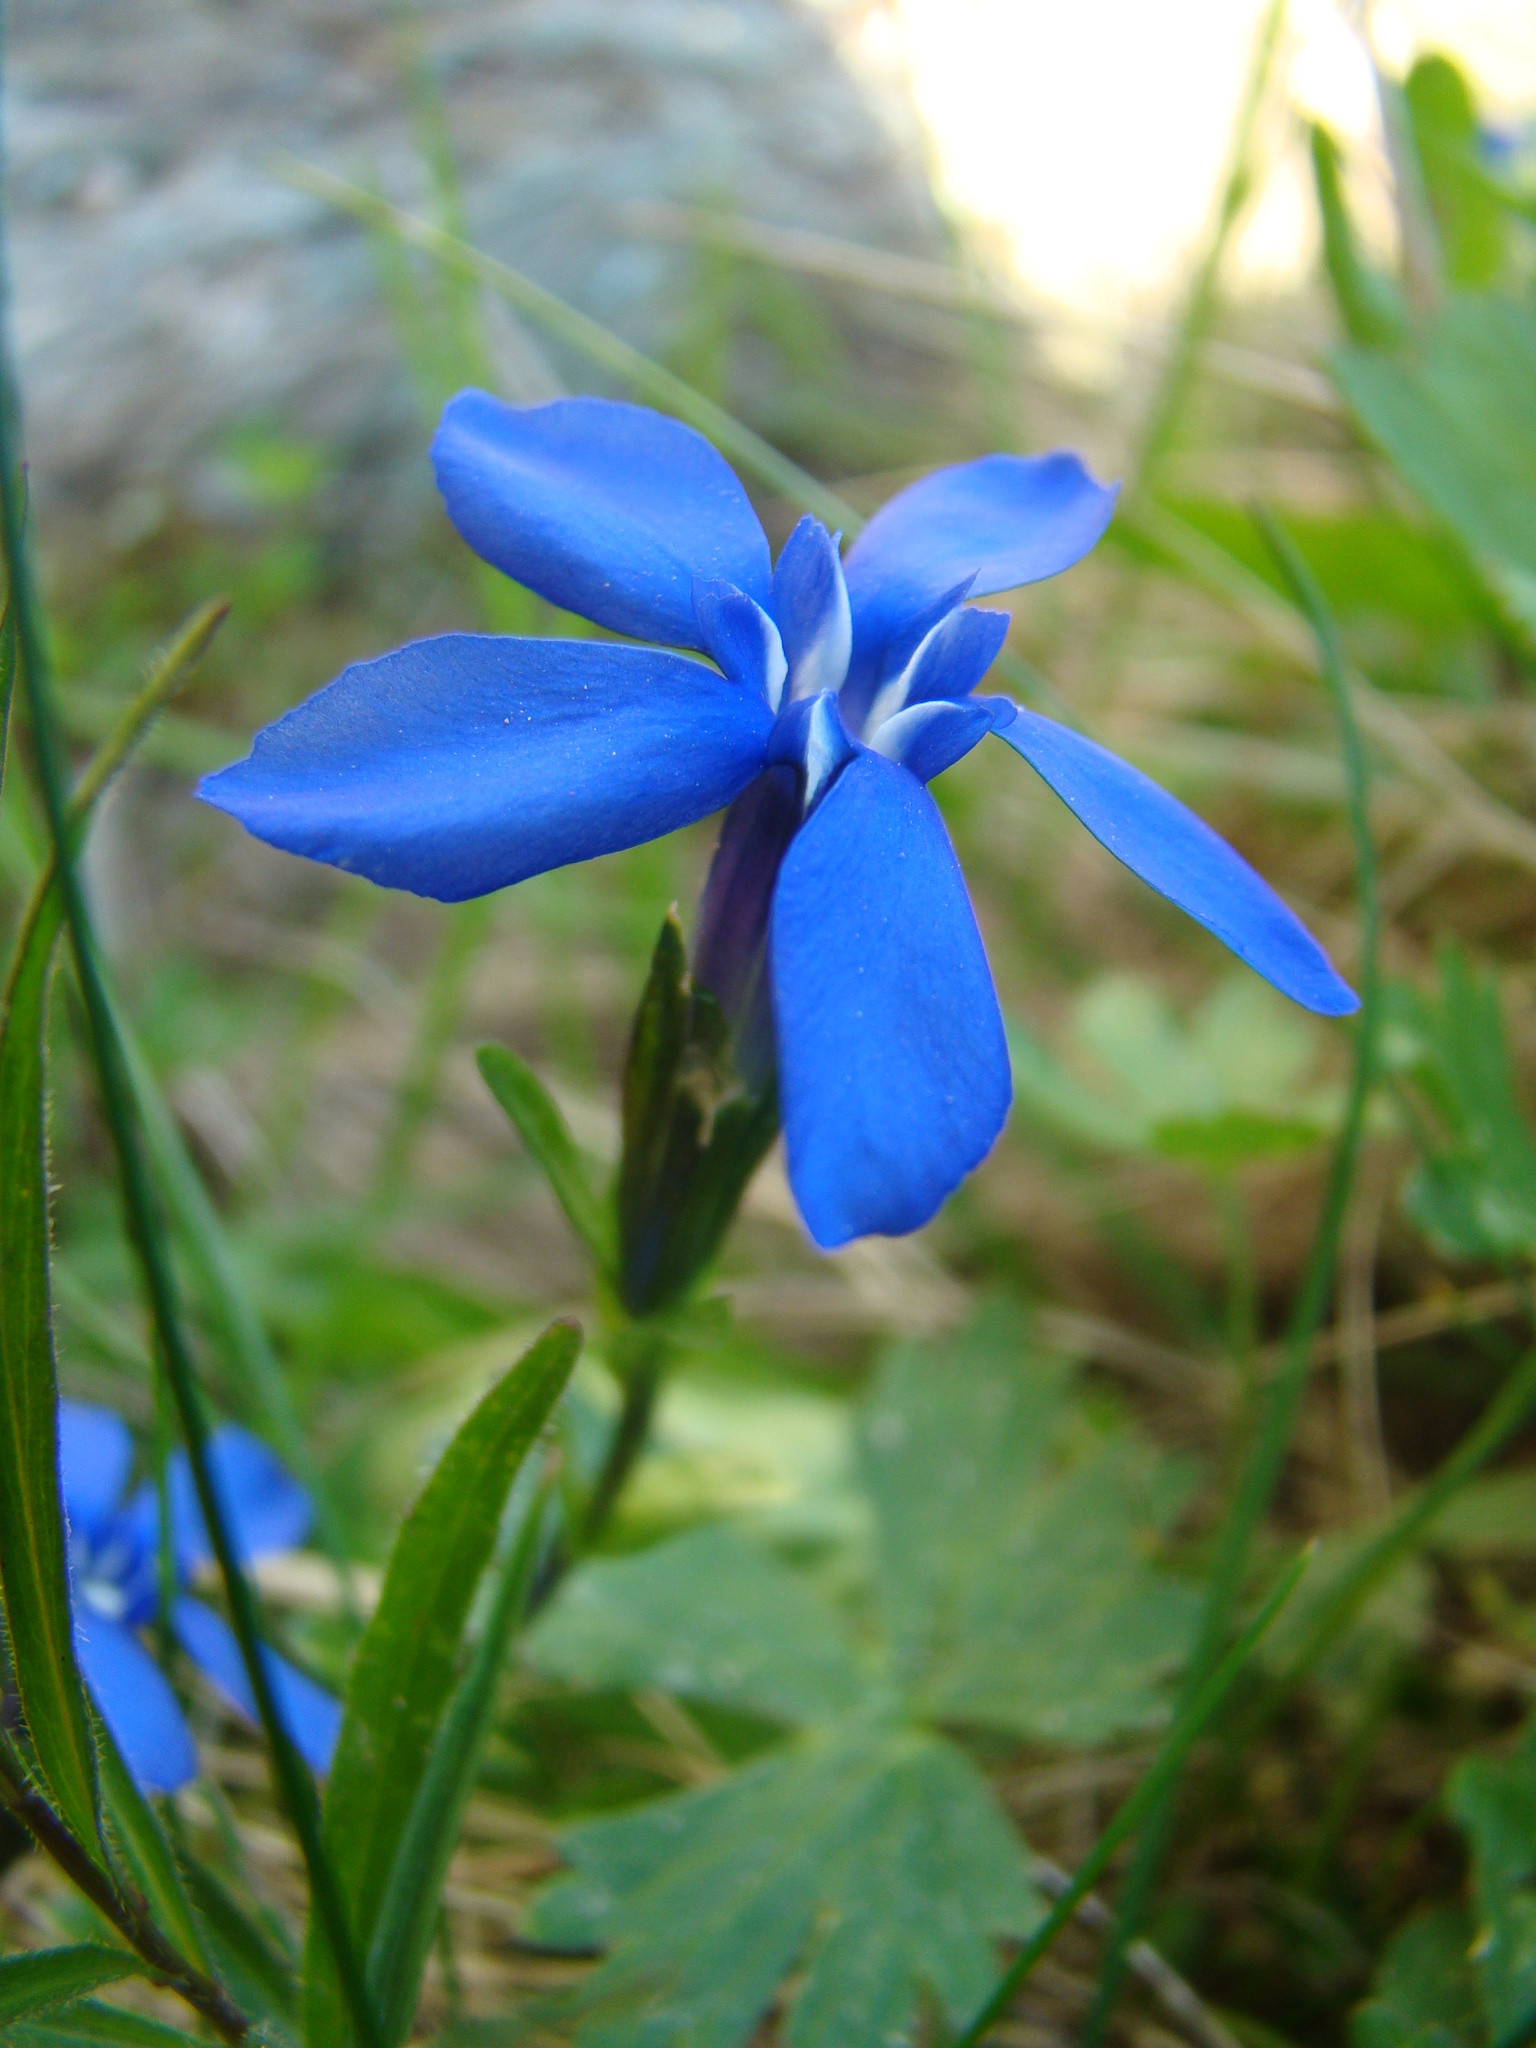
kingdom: Plantae
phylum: Tracheophyta
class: Magnoliopsida
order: Gentianales
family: Gentianaceae
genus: Gentiana
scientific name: Gentiana bavarica
